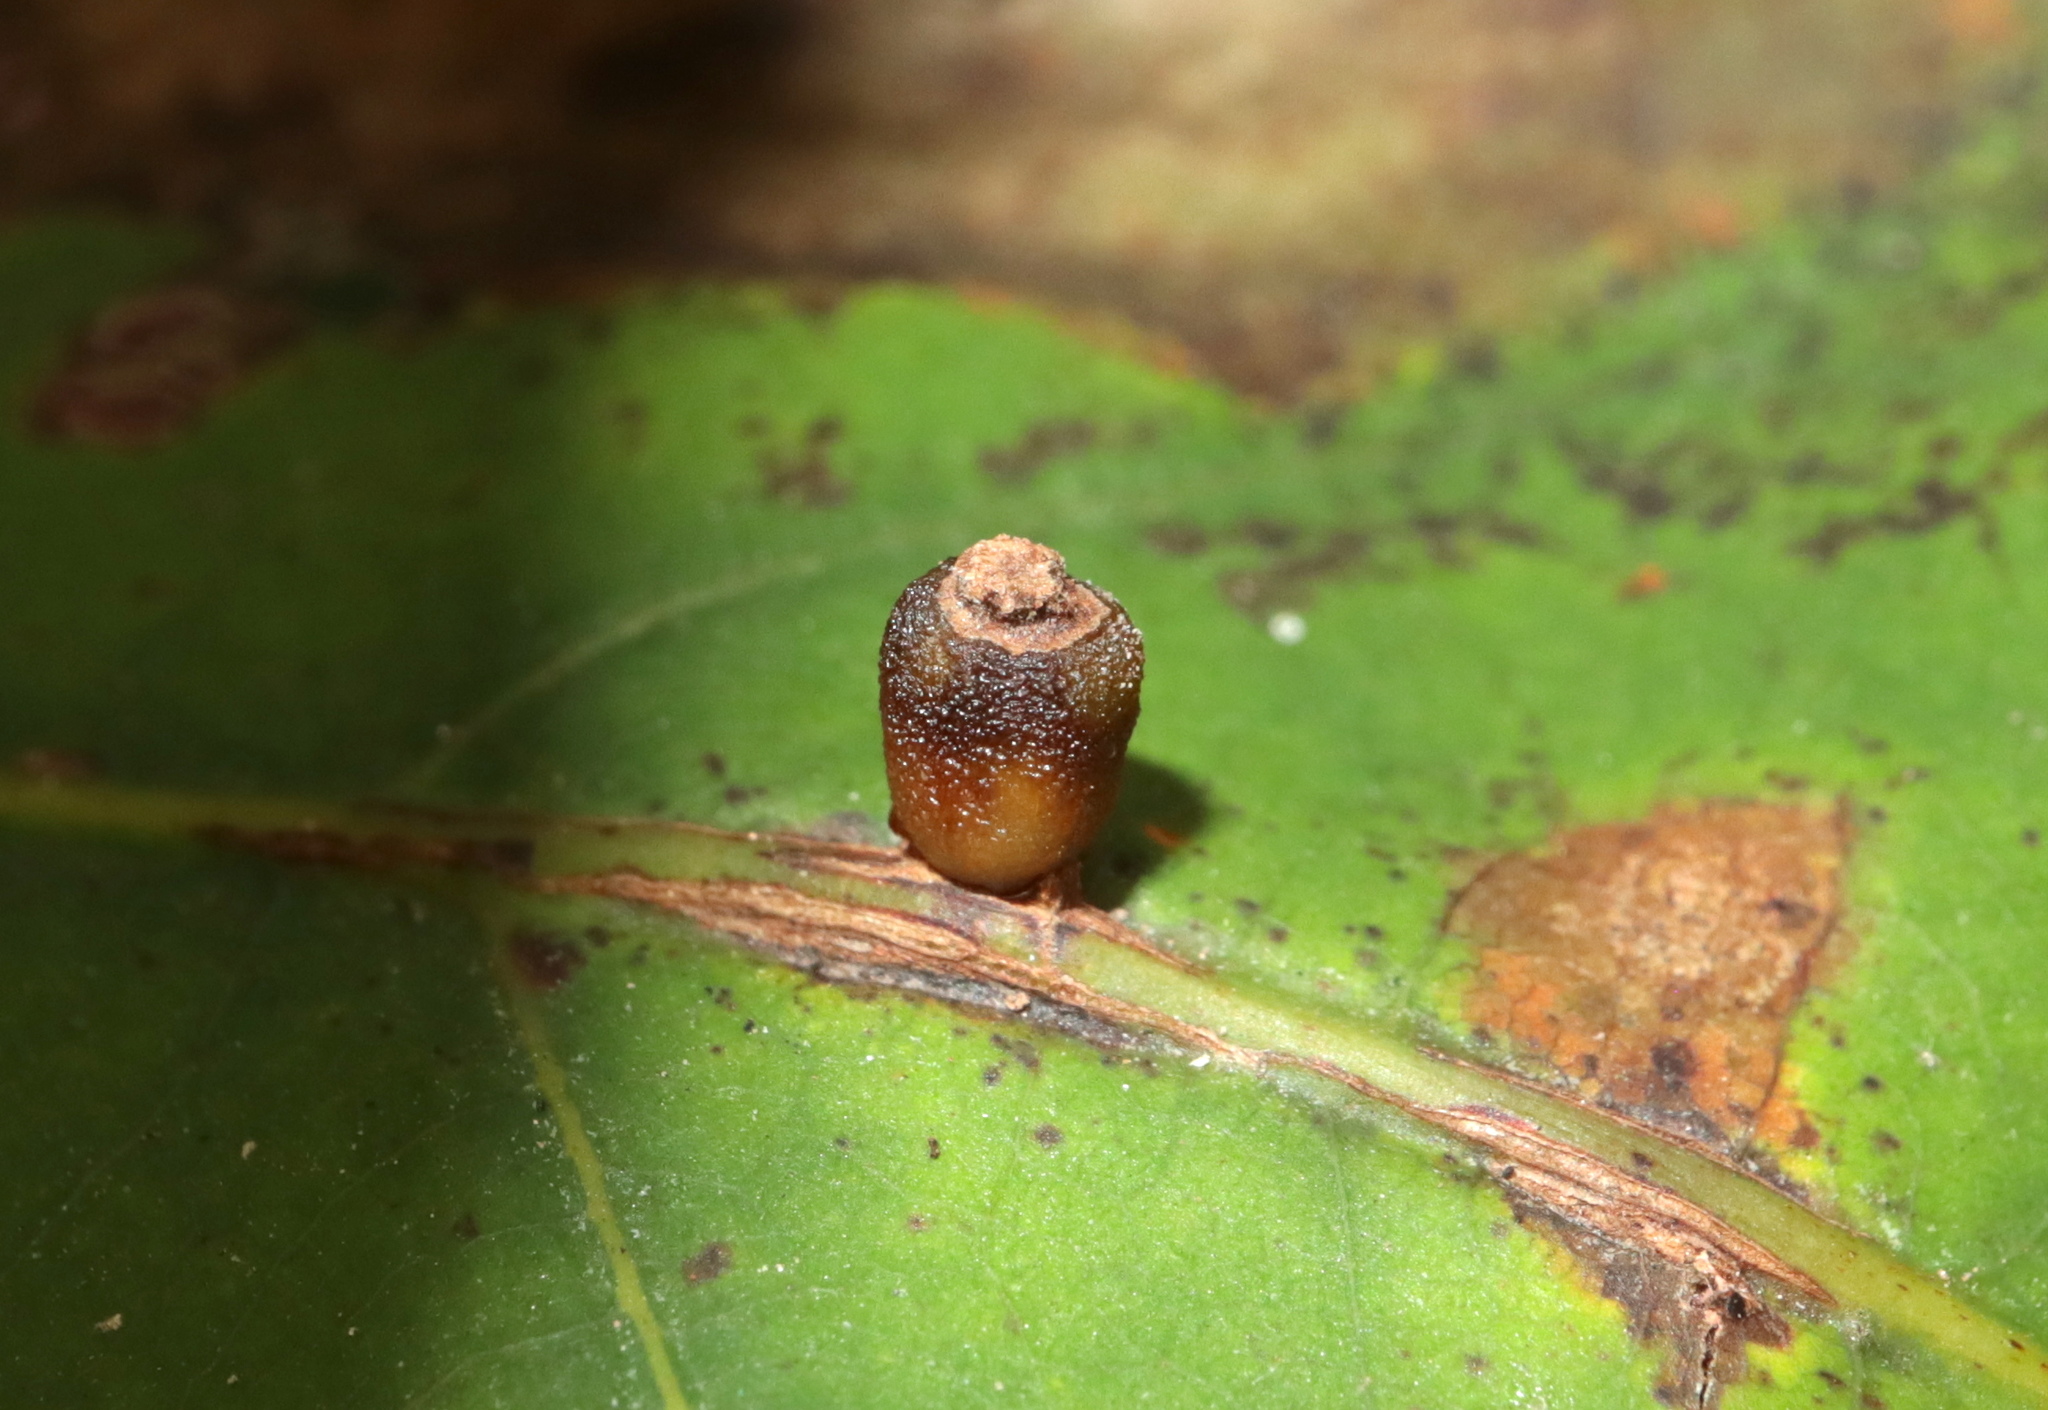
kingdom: Animalia
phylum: Arthropoda
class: Insecta
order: Hymenoptera
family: Cynipidae
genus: Kokkocynips
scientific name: Kokkocynips decidua
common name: Oak wheat gall
